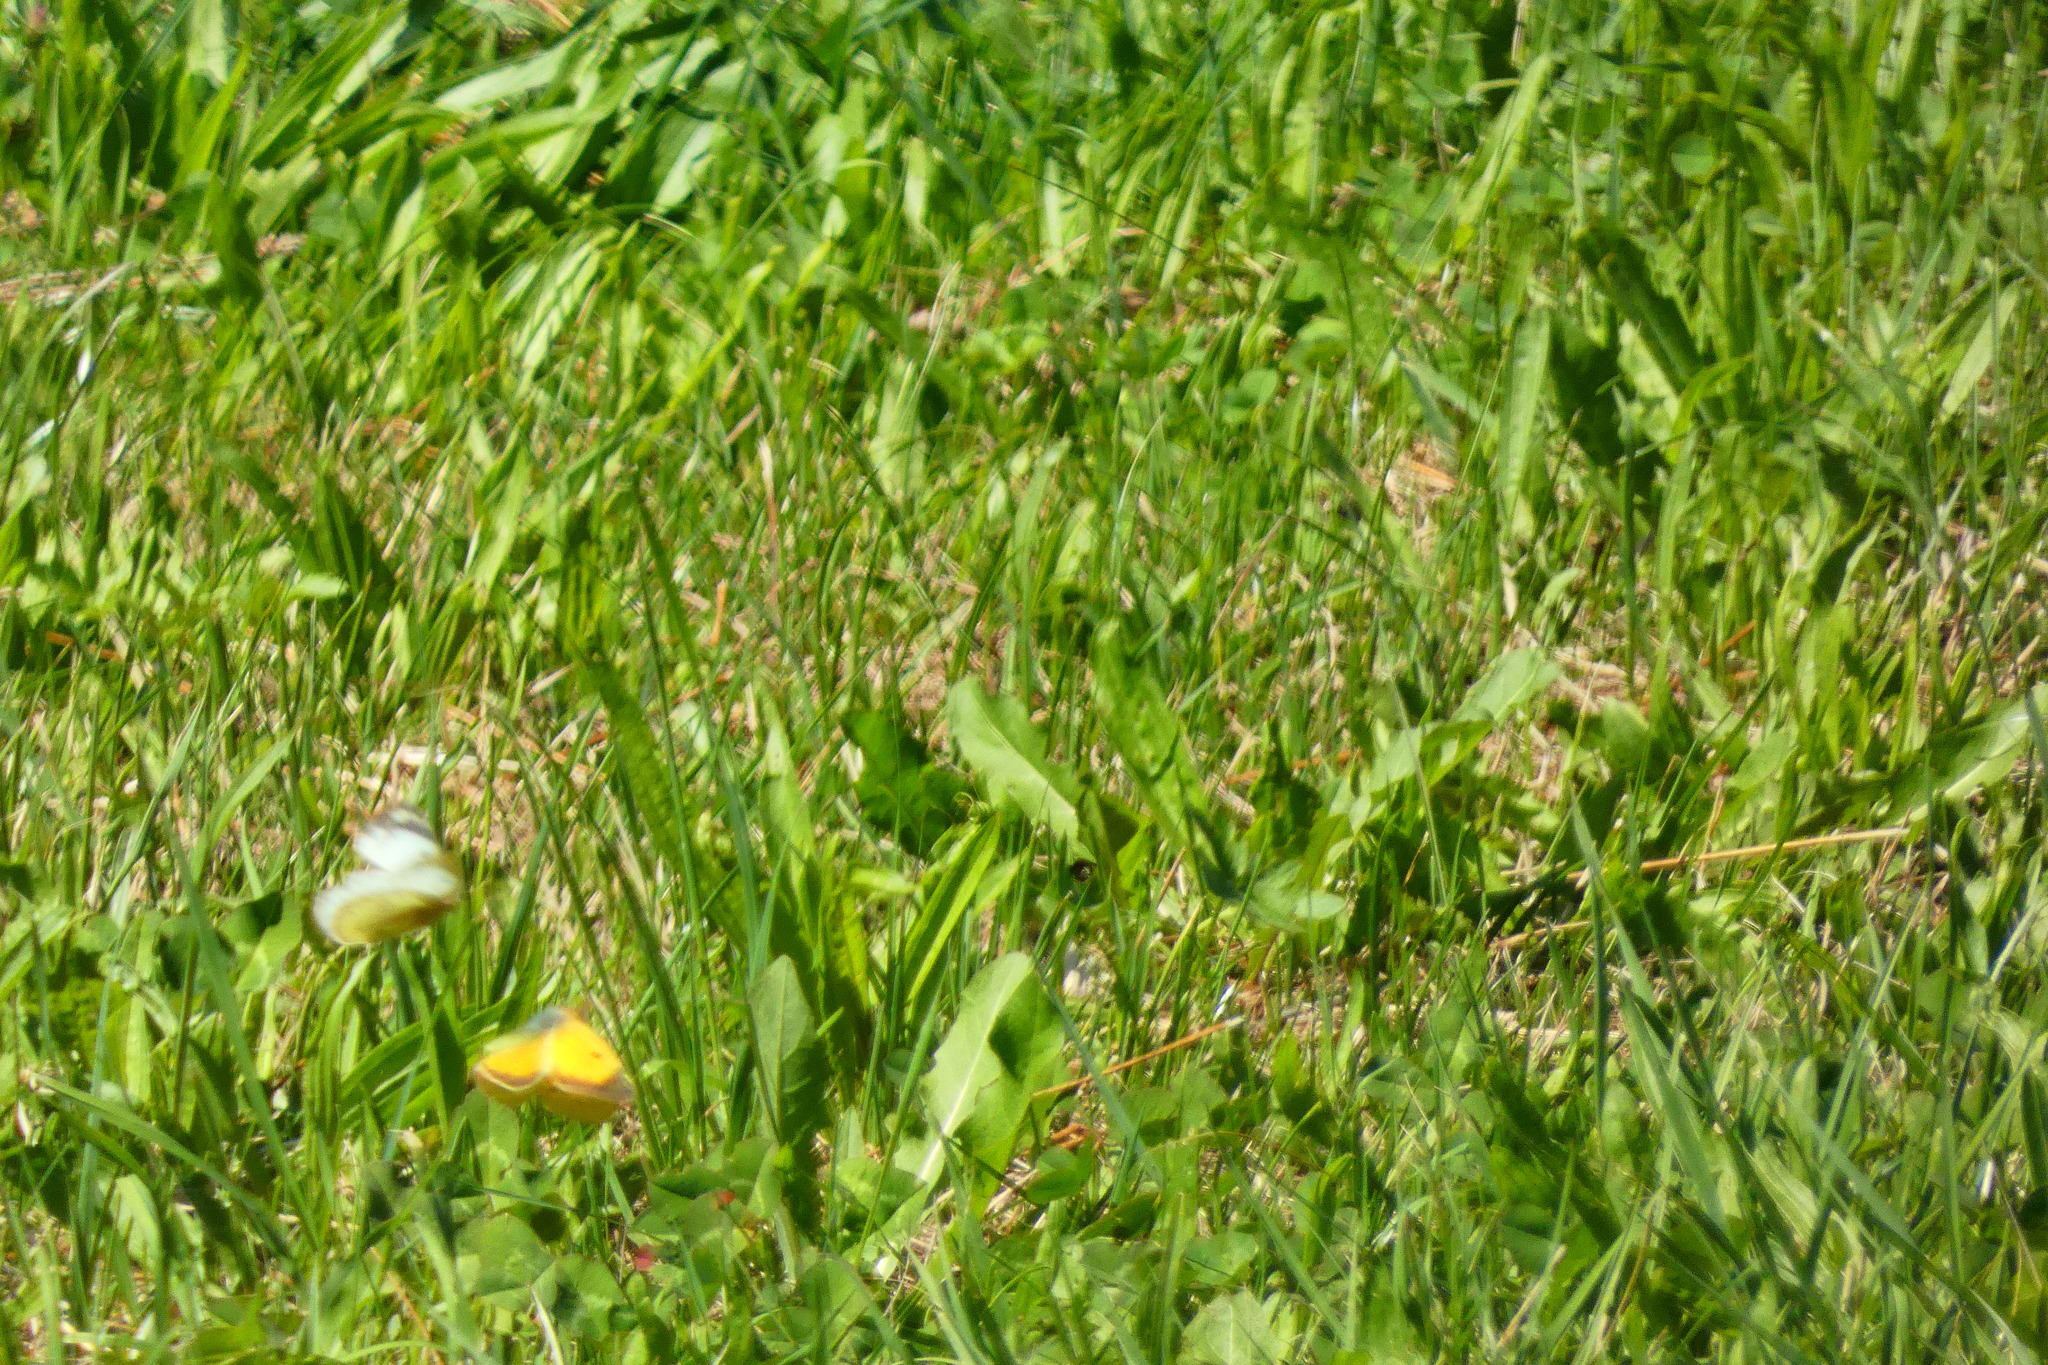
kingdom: Animalia
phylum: Arthropoda
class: Insecta
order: Lepidoptera
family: Pieridae
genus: Colias
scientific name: Colias croceus
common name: Clouded yellow
